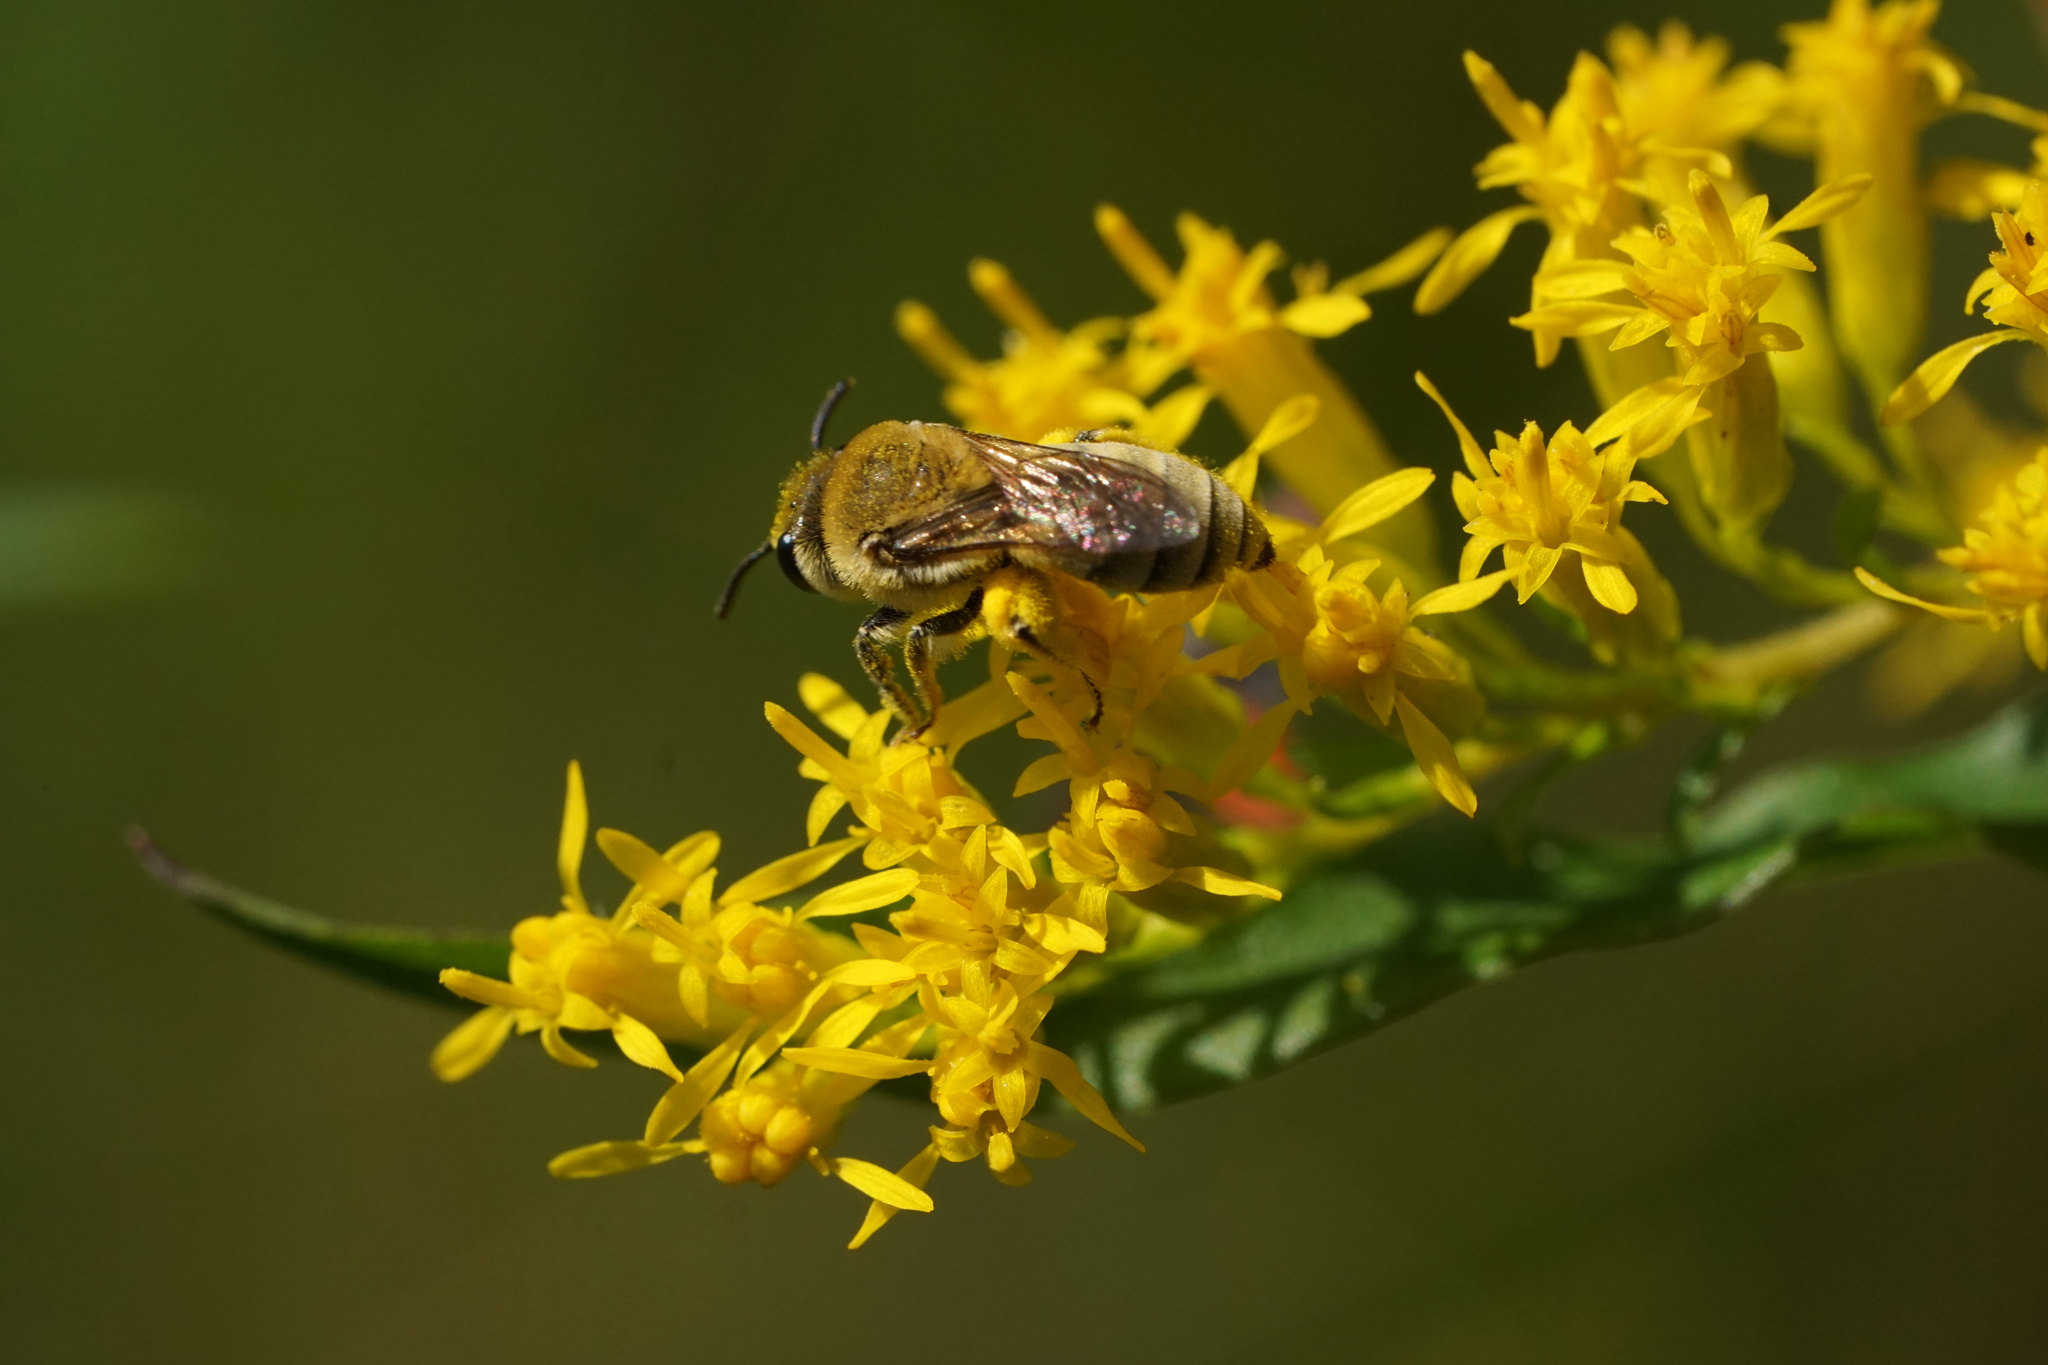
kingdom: Animalia
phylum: Arthropoda
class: Insecta
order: Hymenoptera
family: Colletidae
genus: Colletes
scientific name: Colletes solidaginis
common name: Goldenrod cellophane bee
